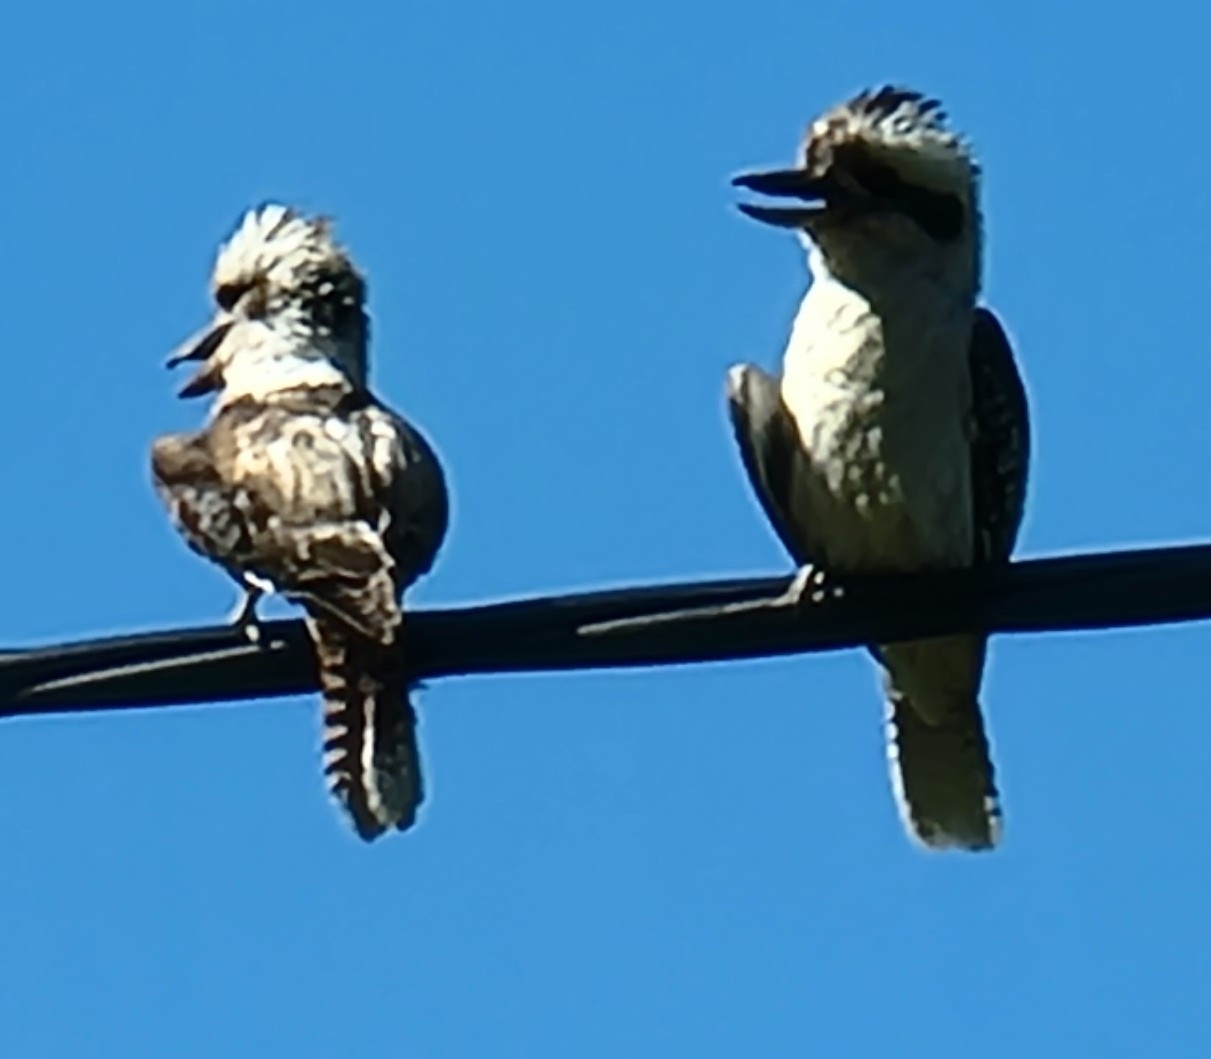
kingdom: Animalia
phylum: Chordata
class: Aves
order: Coraciiformes
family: Alcedinidae
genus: Dacelo
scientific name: Dacelo novaeguineae
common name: Laughing kookaburra
